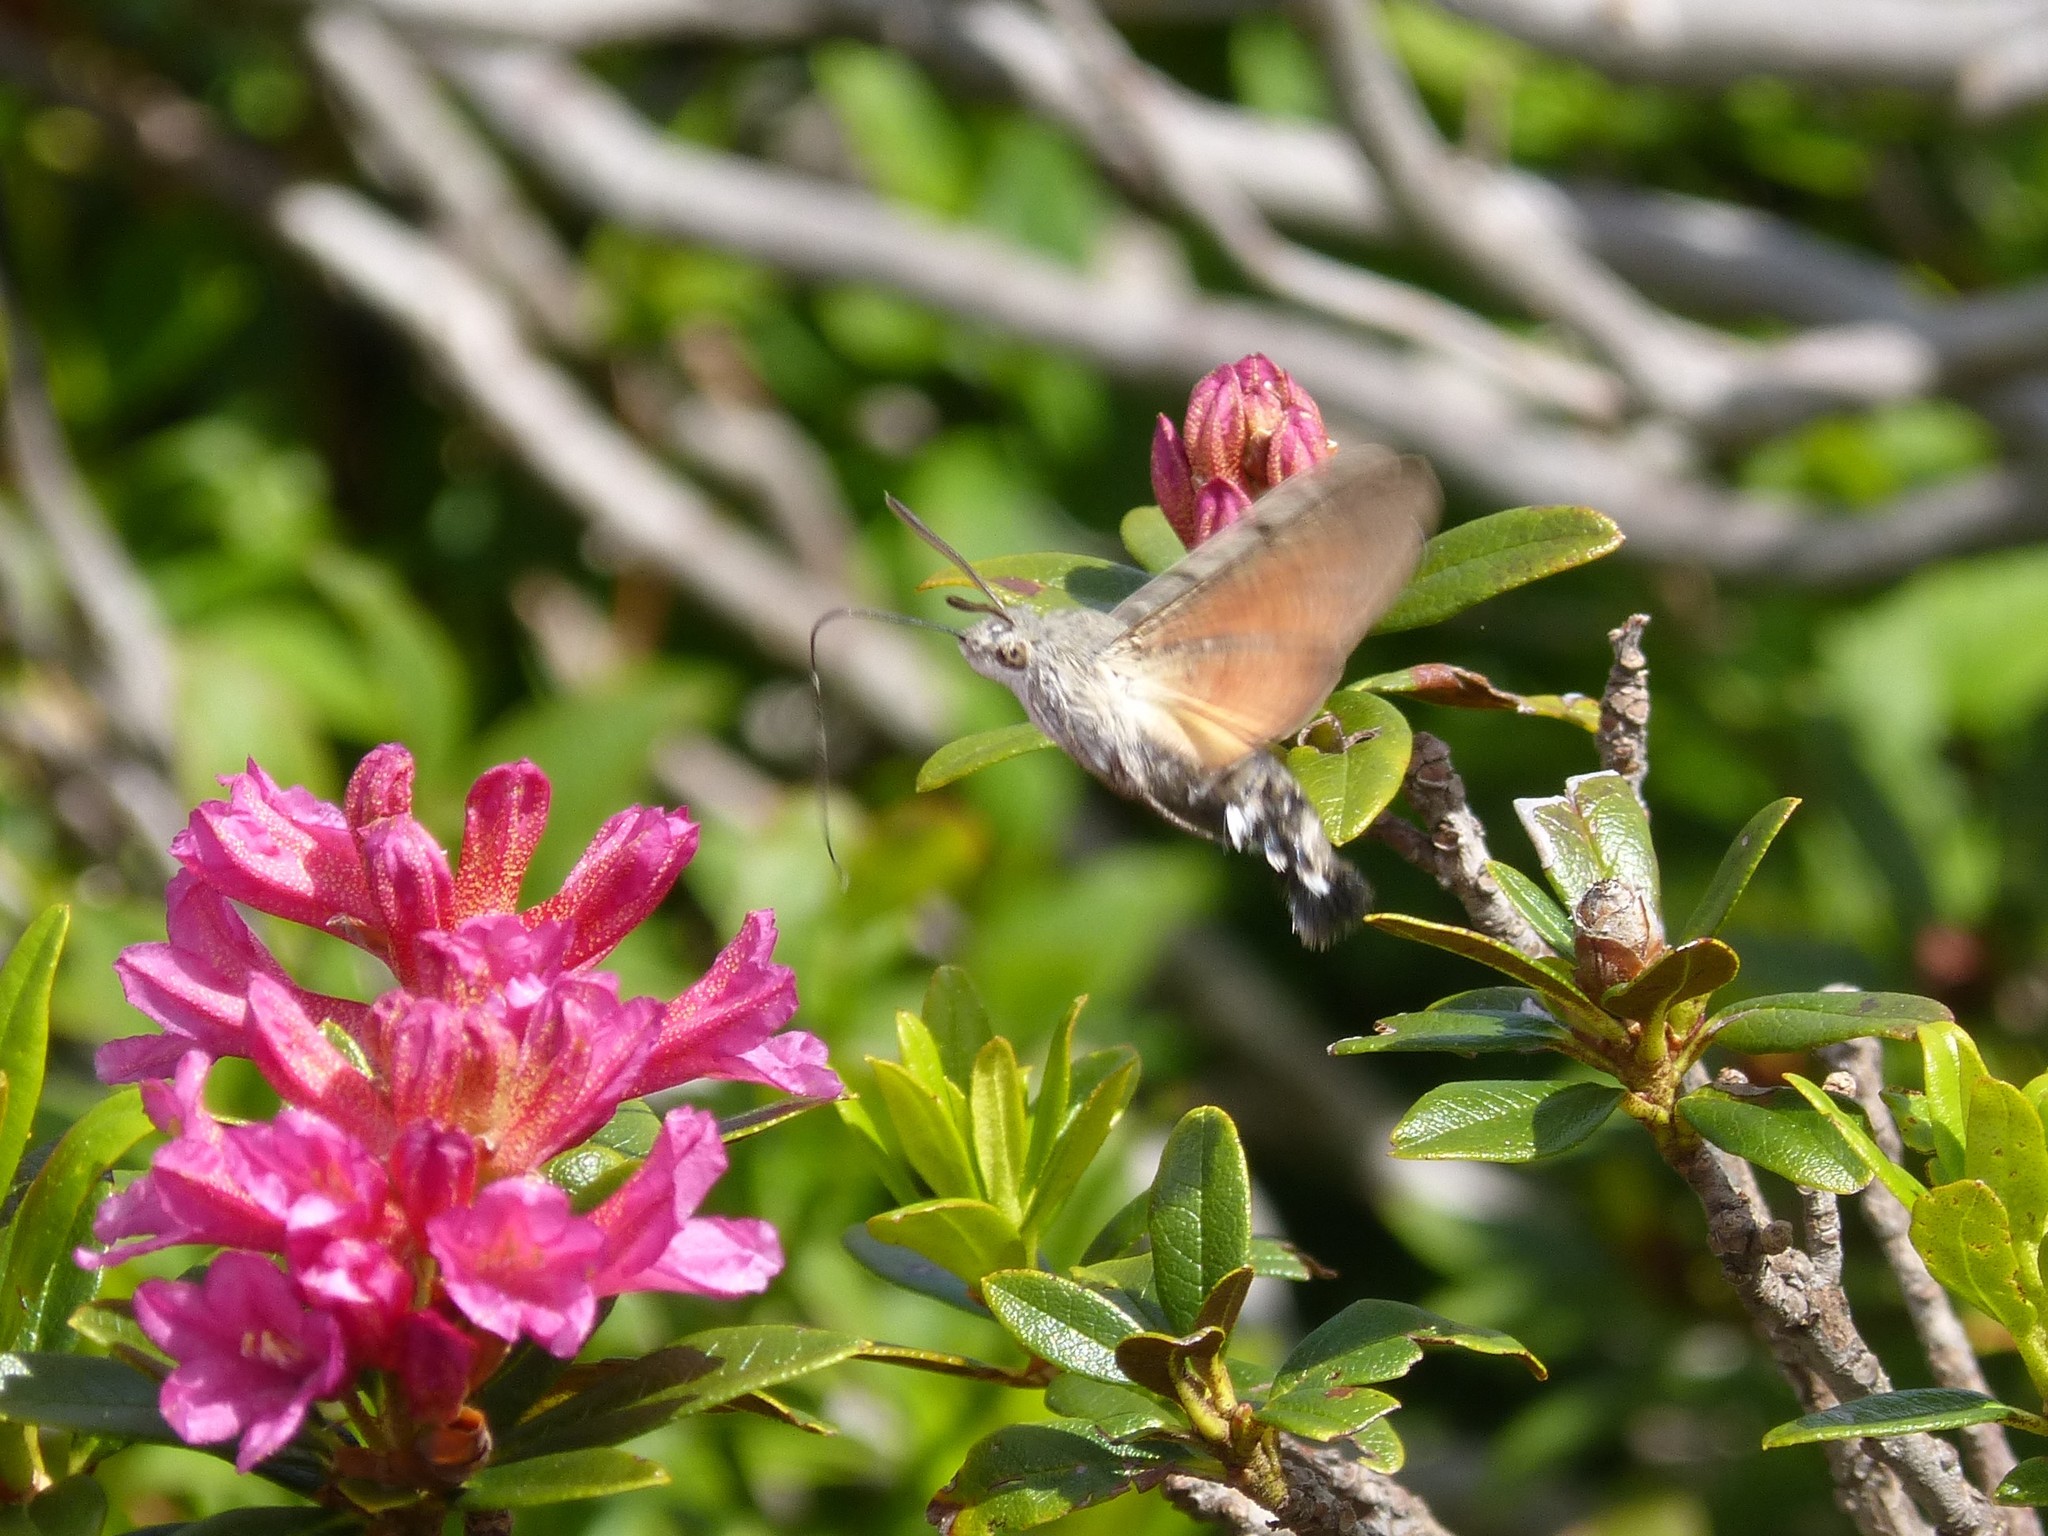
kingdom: Animalia
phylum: Arthropoda
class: Insecta
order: Lepidoptera
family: Sphingidae
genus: Macroglossum
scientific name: Macroglossum stellatarum
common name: Humming-bird hawk-moth
